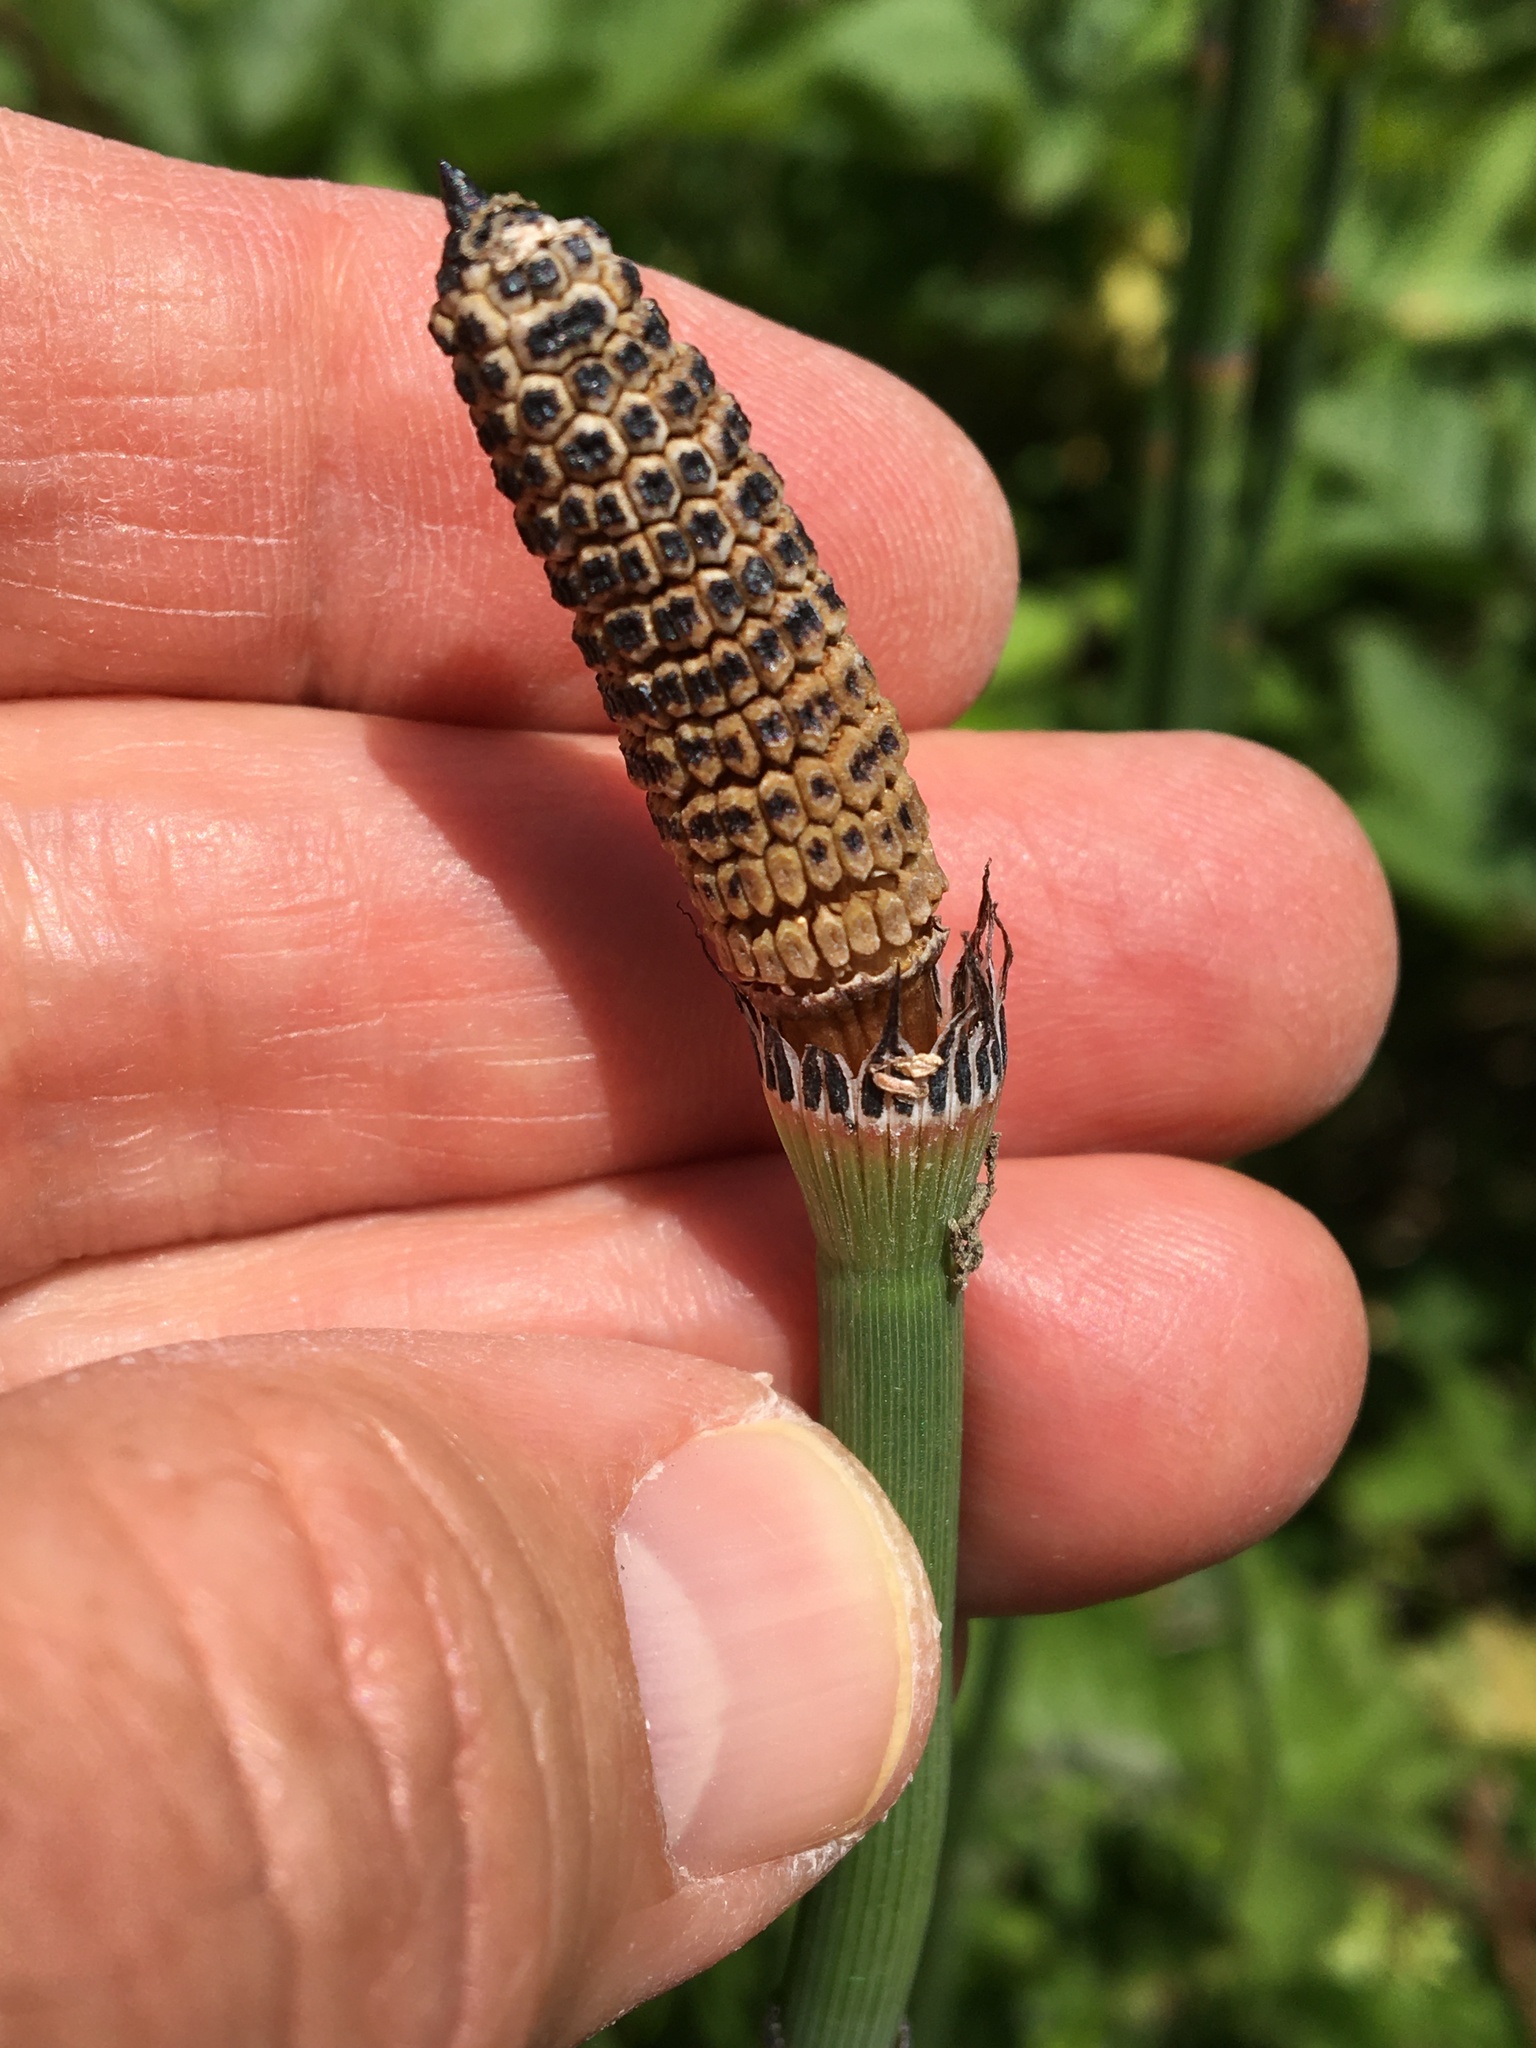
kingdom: Plantae
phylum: Tracheophyta
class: Polypodiopsida
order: Equisetales
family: Equisetaceae
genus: Equisetum
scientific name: Equisetum ferrissii
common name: Ferriss' horsetail
